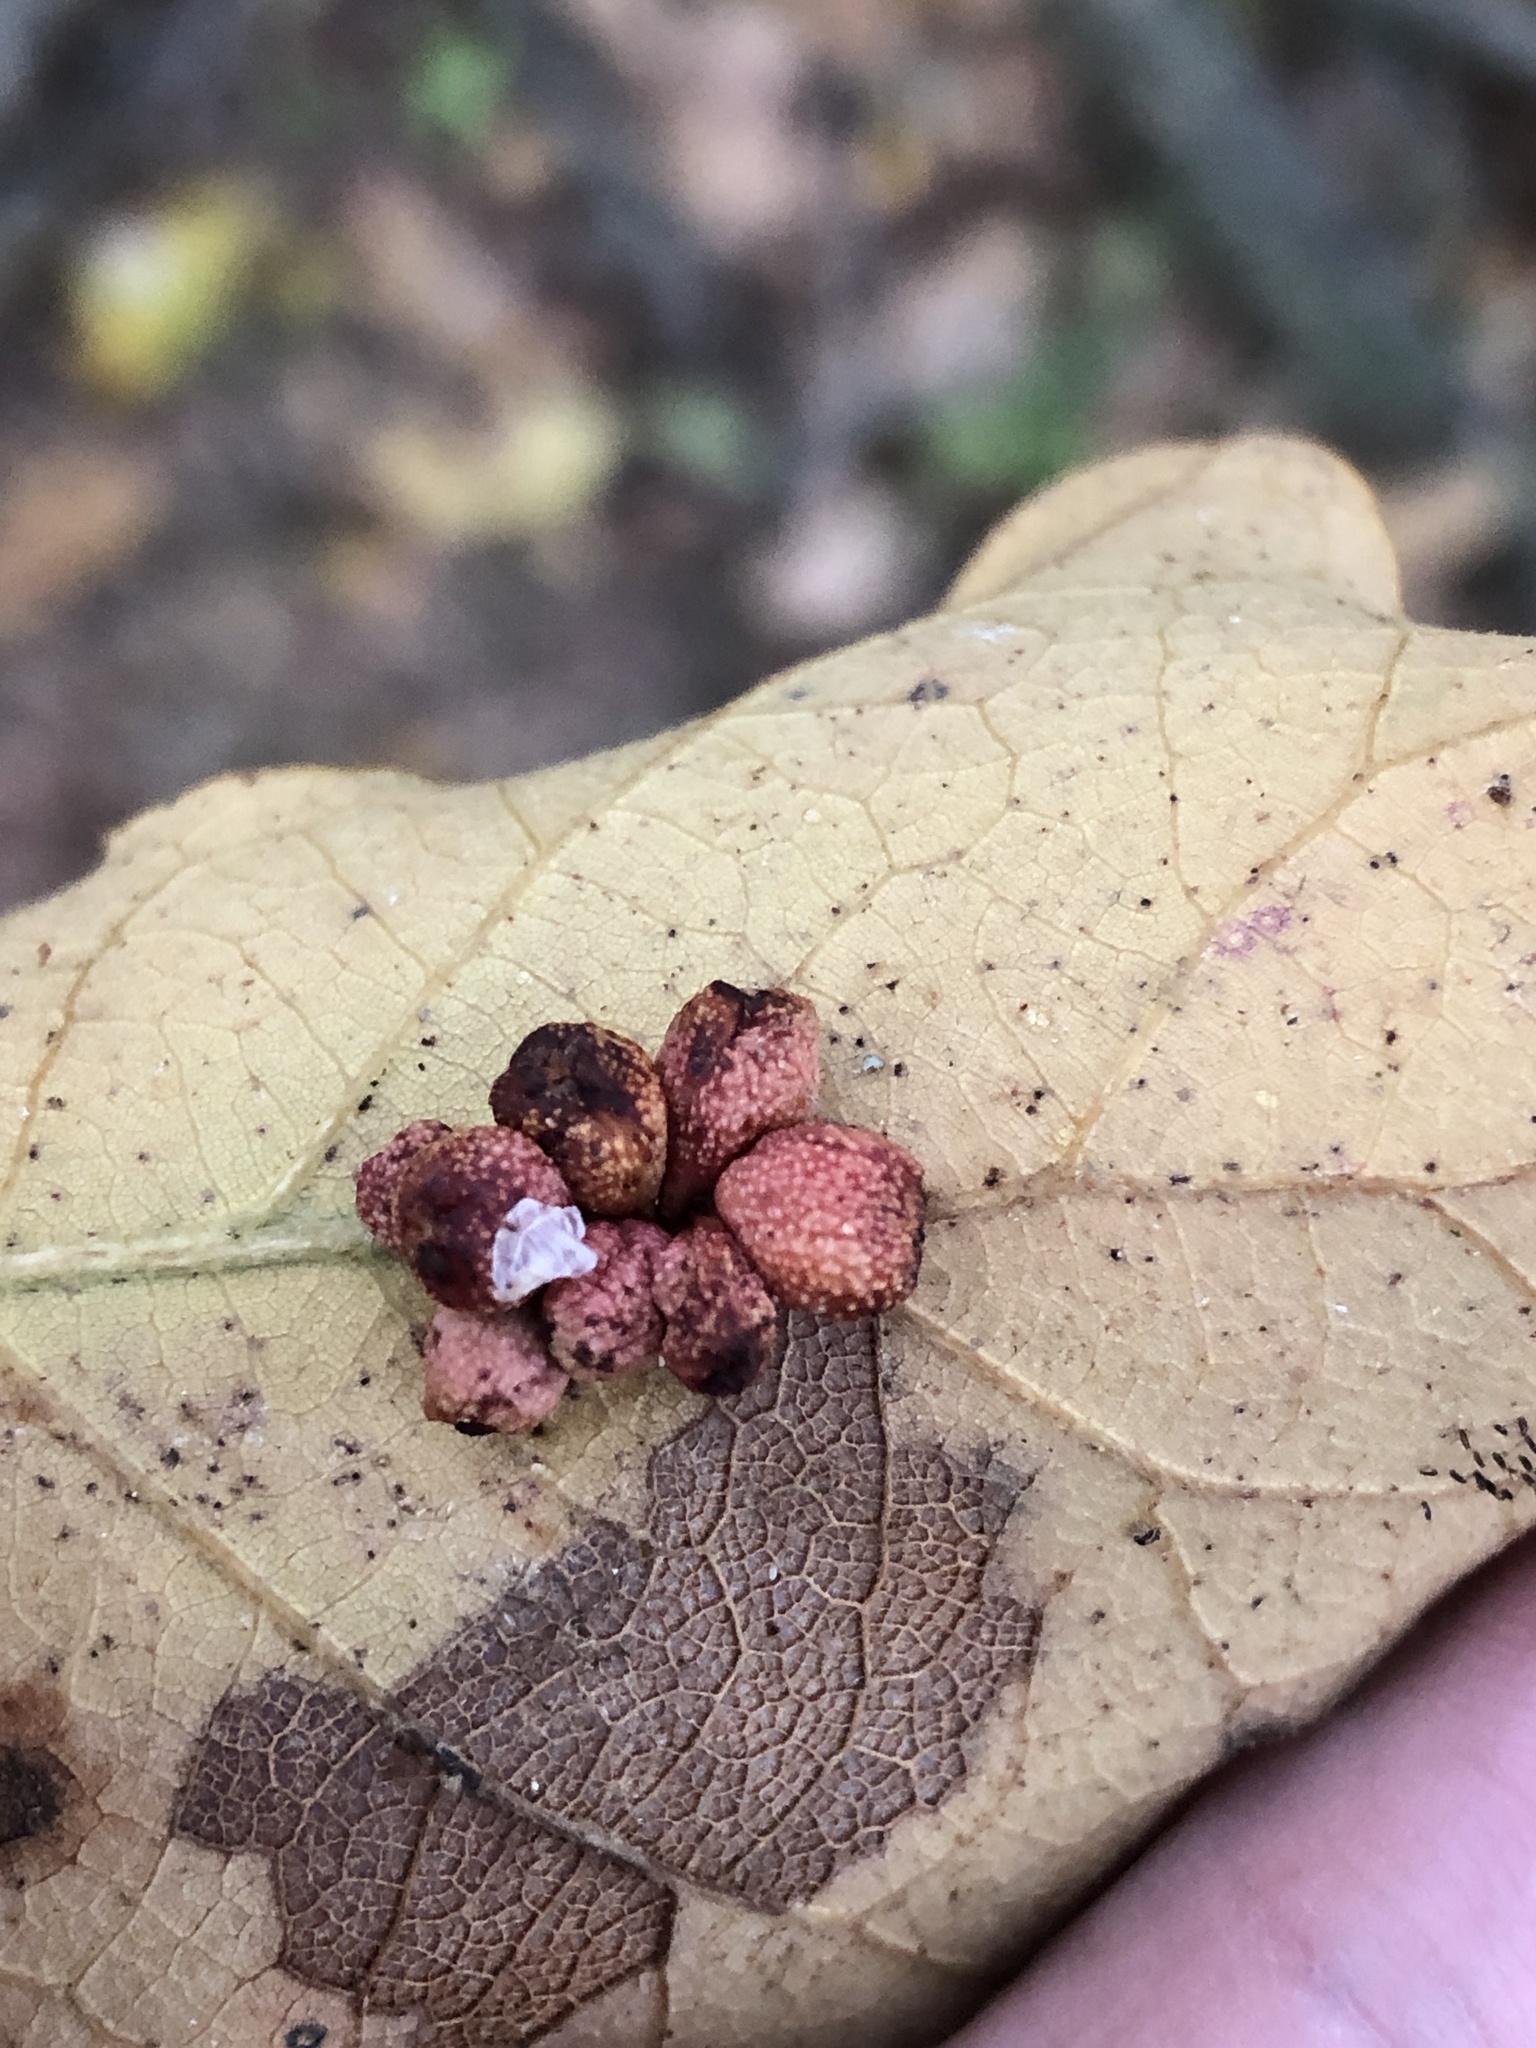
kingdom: Animalia
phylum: Arthropoda
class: Insecta
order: Hymenoptera
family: Cynipidae
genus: Andricus
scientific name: Andricus lustrans
